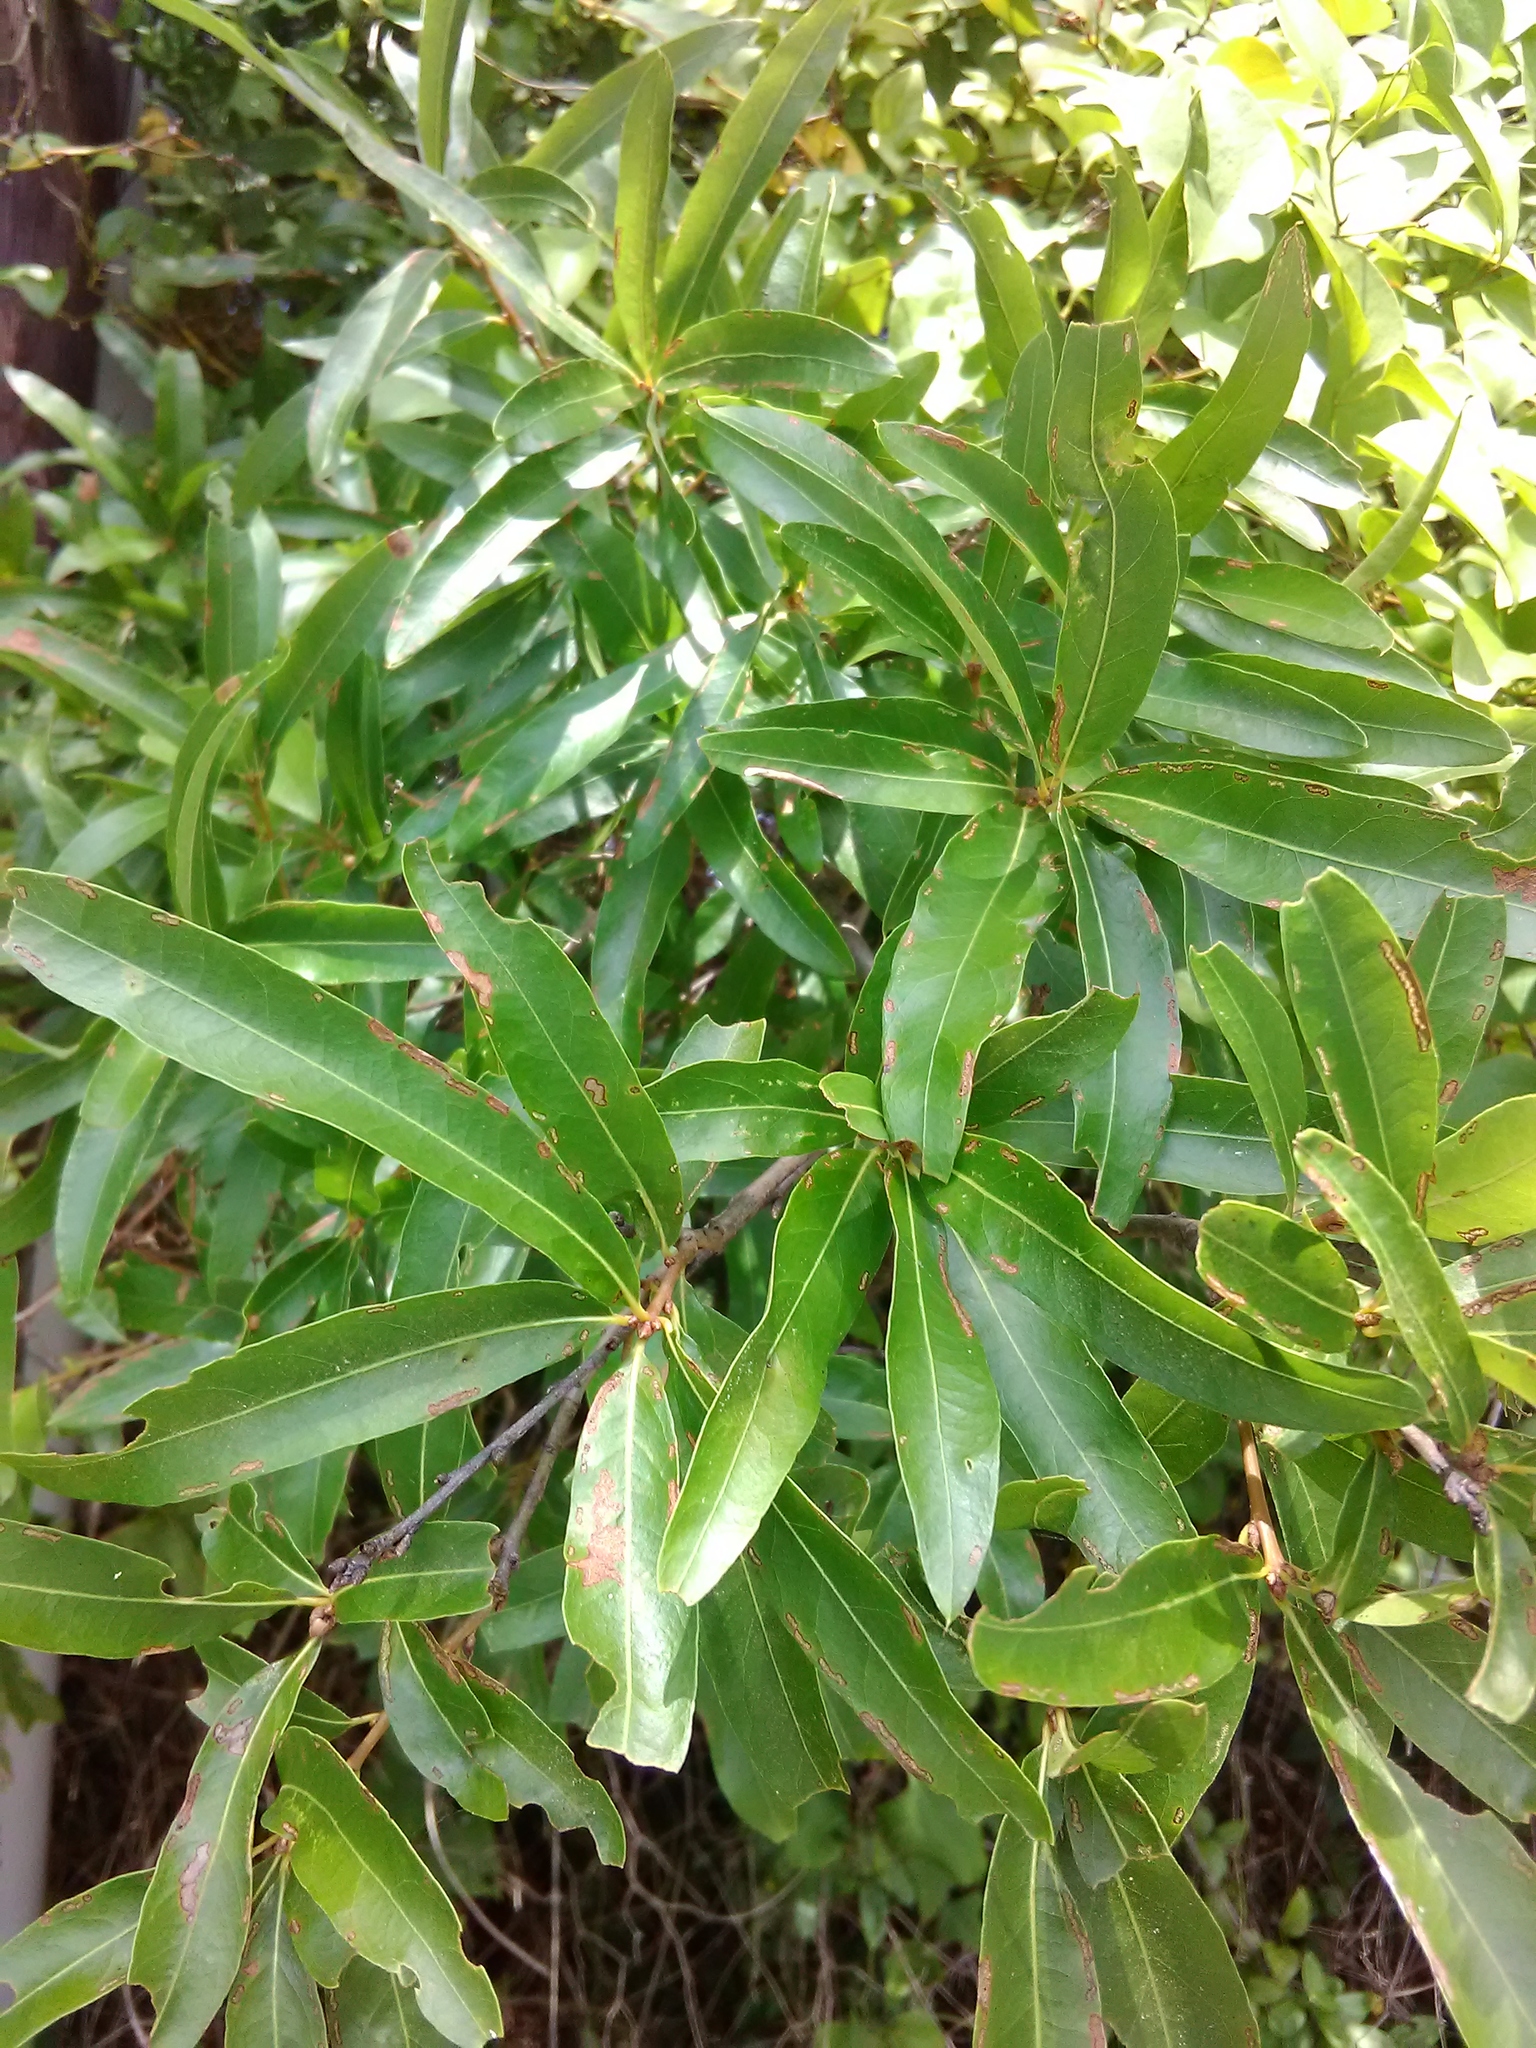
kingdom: Plantae
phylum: Tracheophyta
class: Magnoliopsida
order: Fagales
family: Fagaceae
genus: Quercus
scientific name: Quercus phellos
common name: Willow oak
